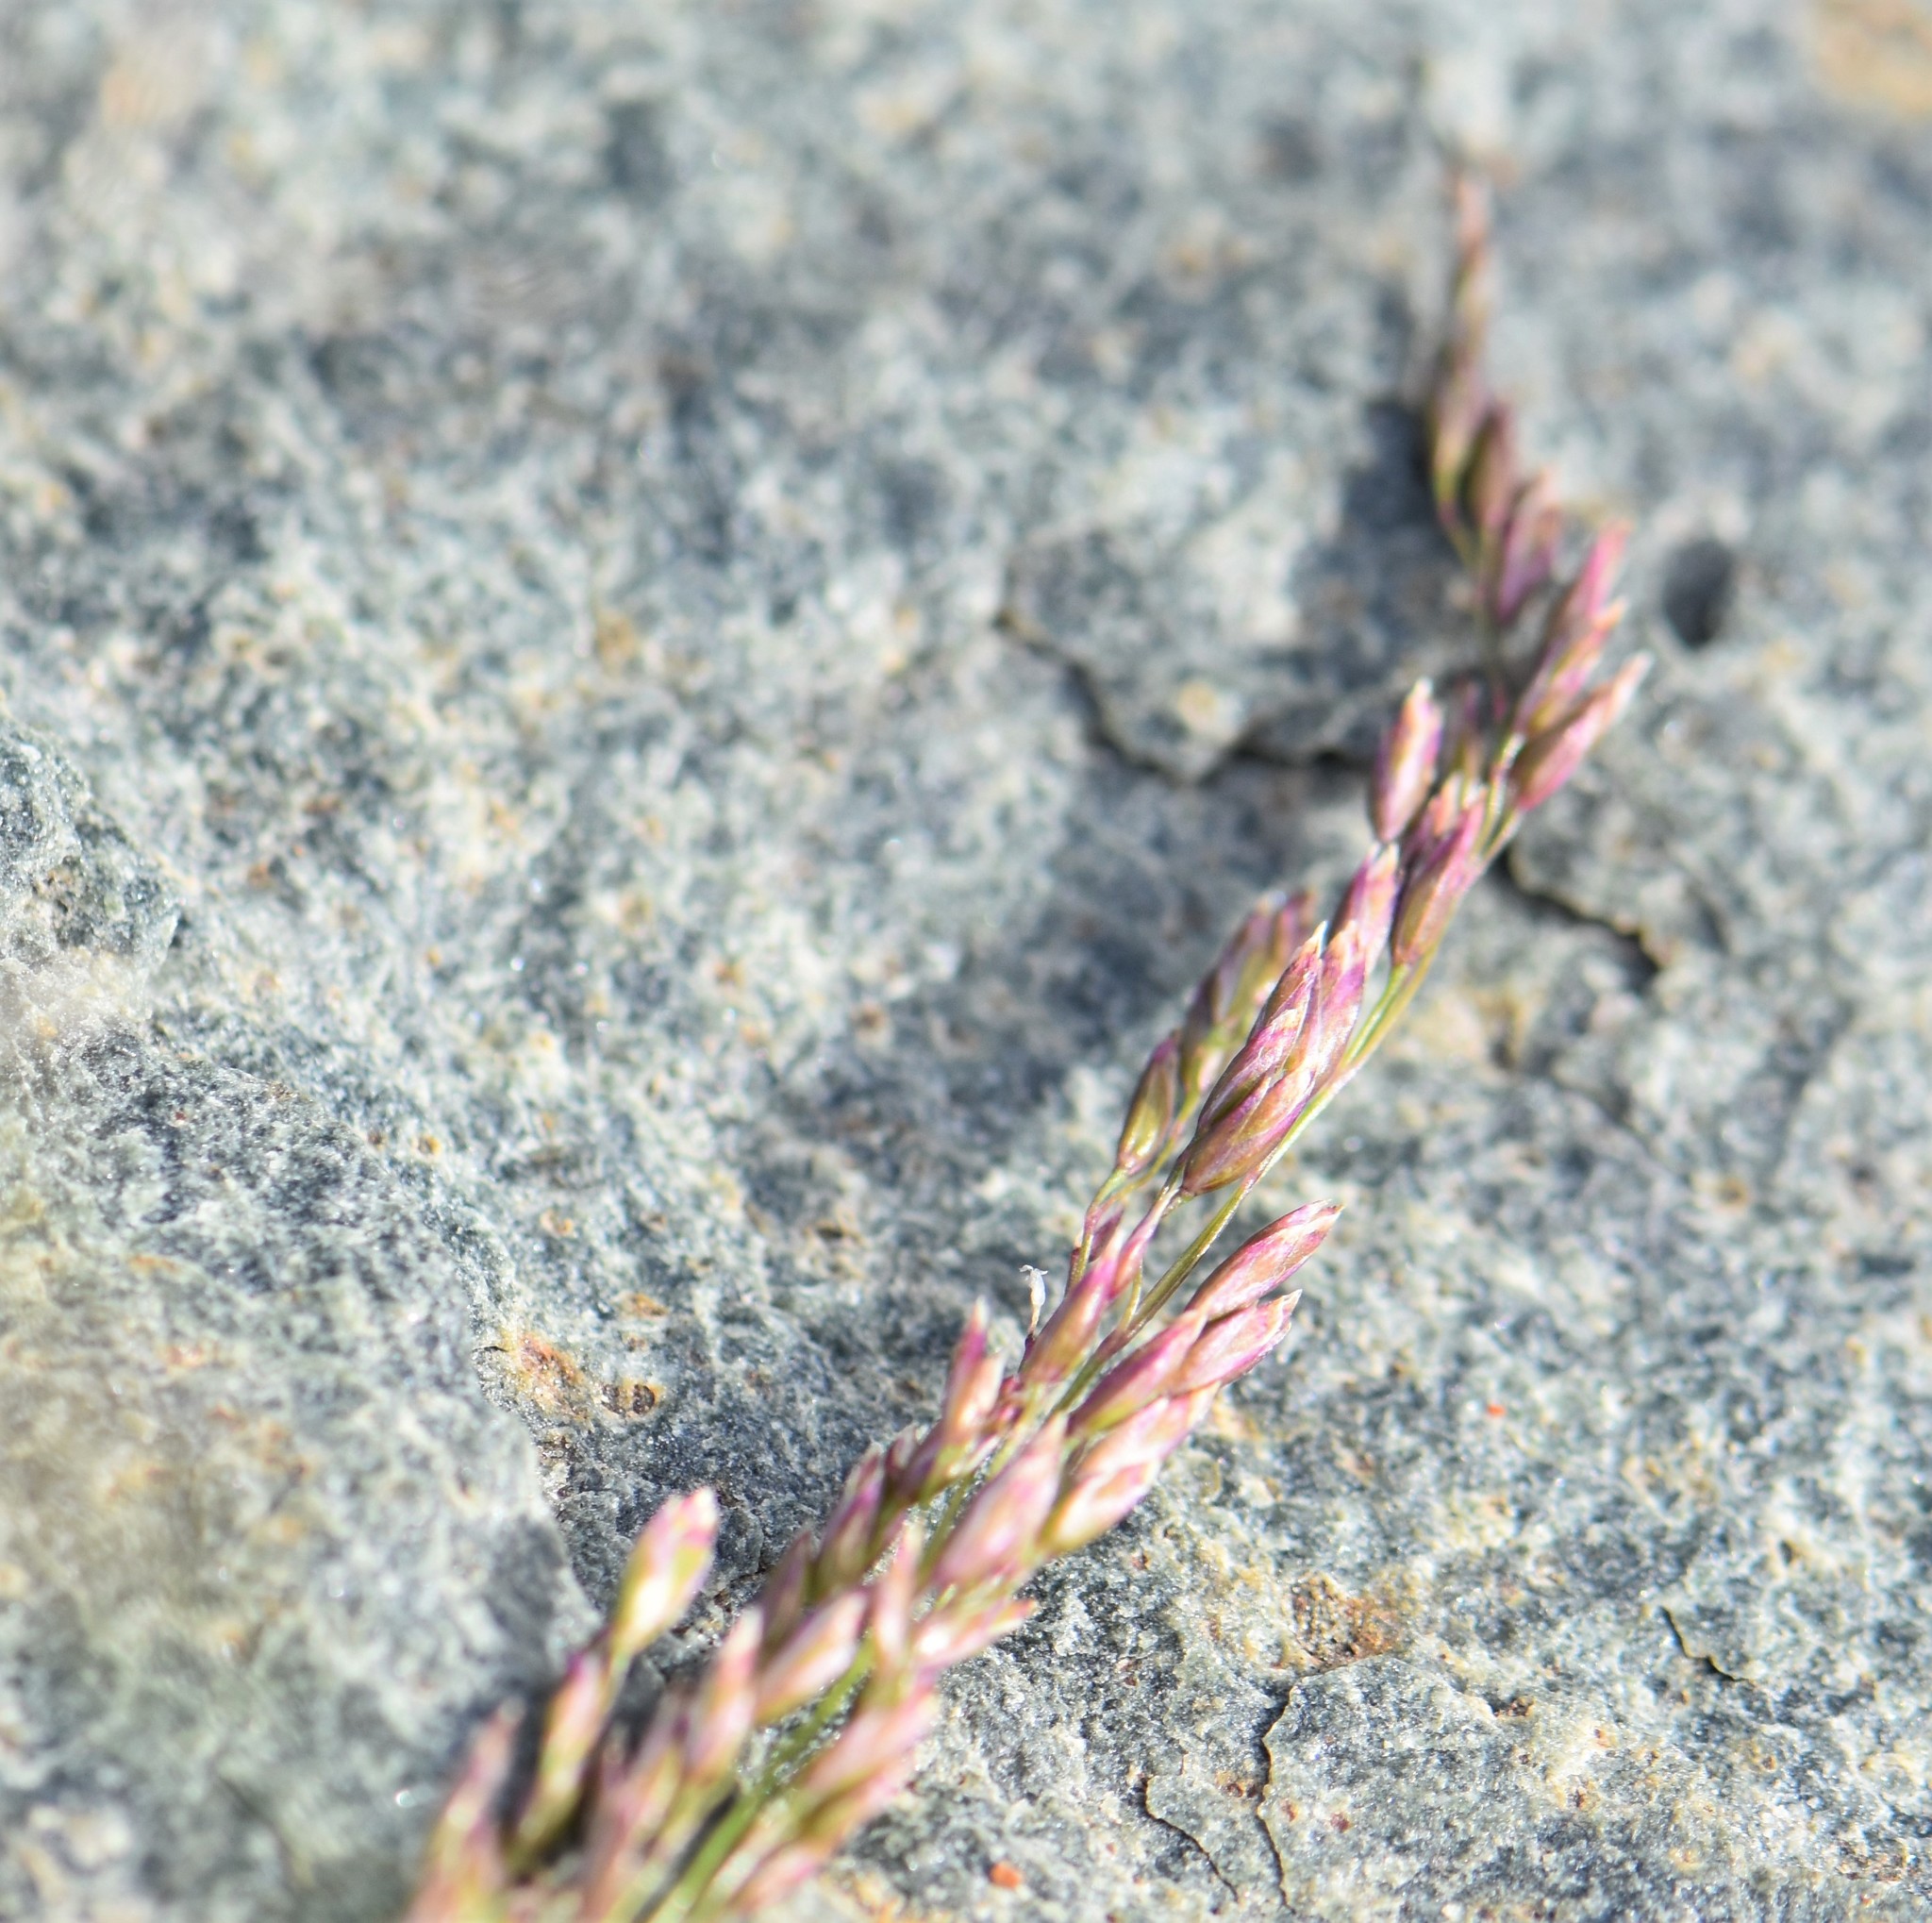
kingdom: Plantae
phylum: Tracheophyta
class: Liliopsida
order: Poales
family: Poaceae
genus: Poa
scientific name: Poa glauca
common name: Glaucous bluegrass
